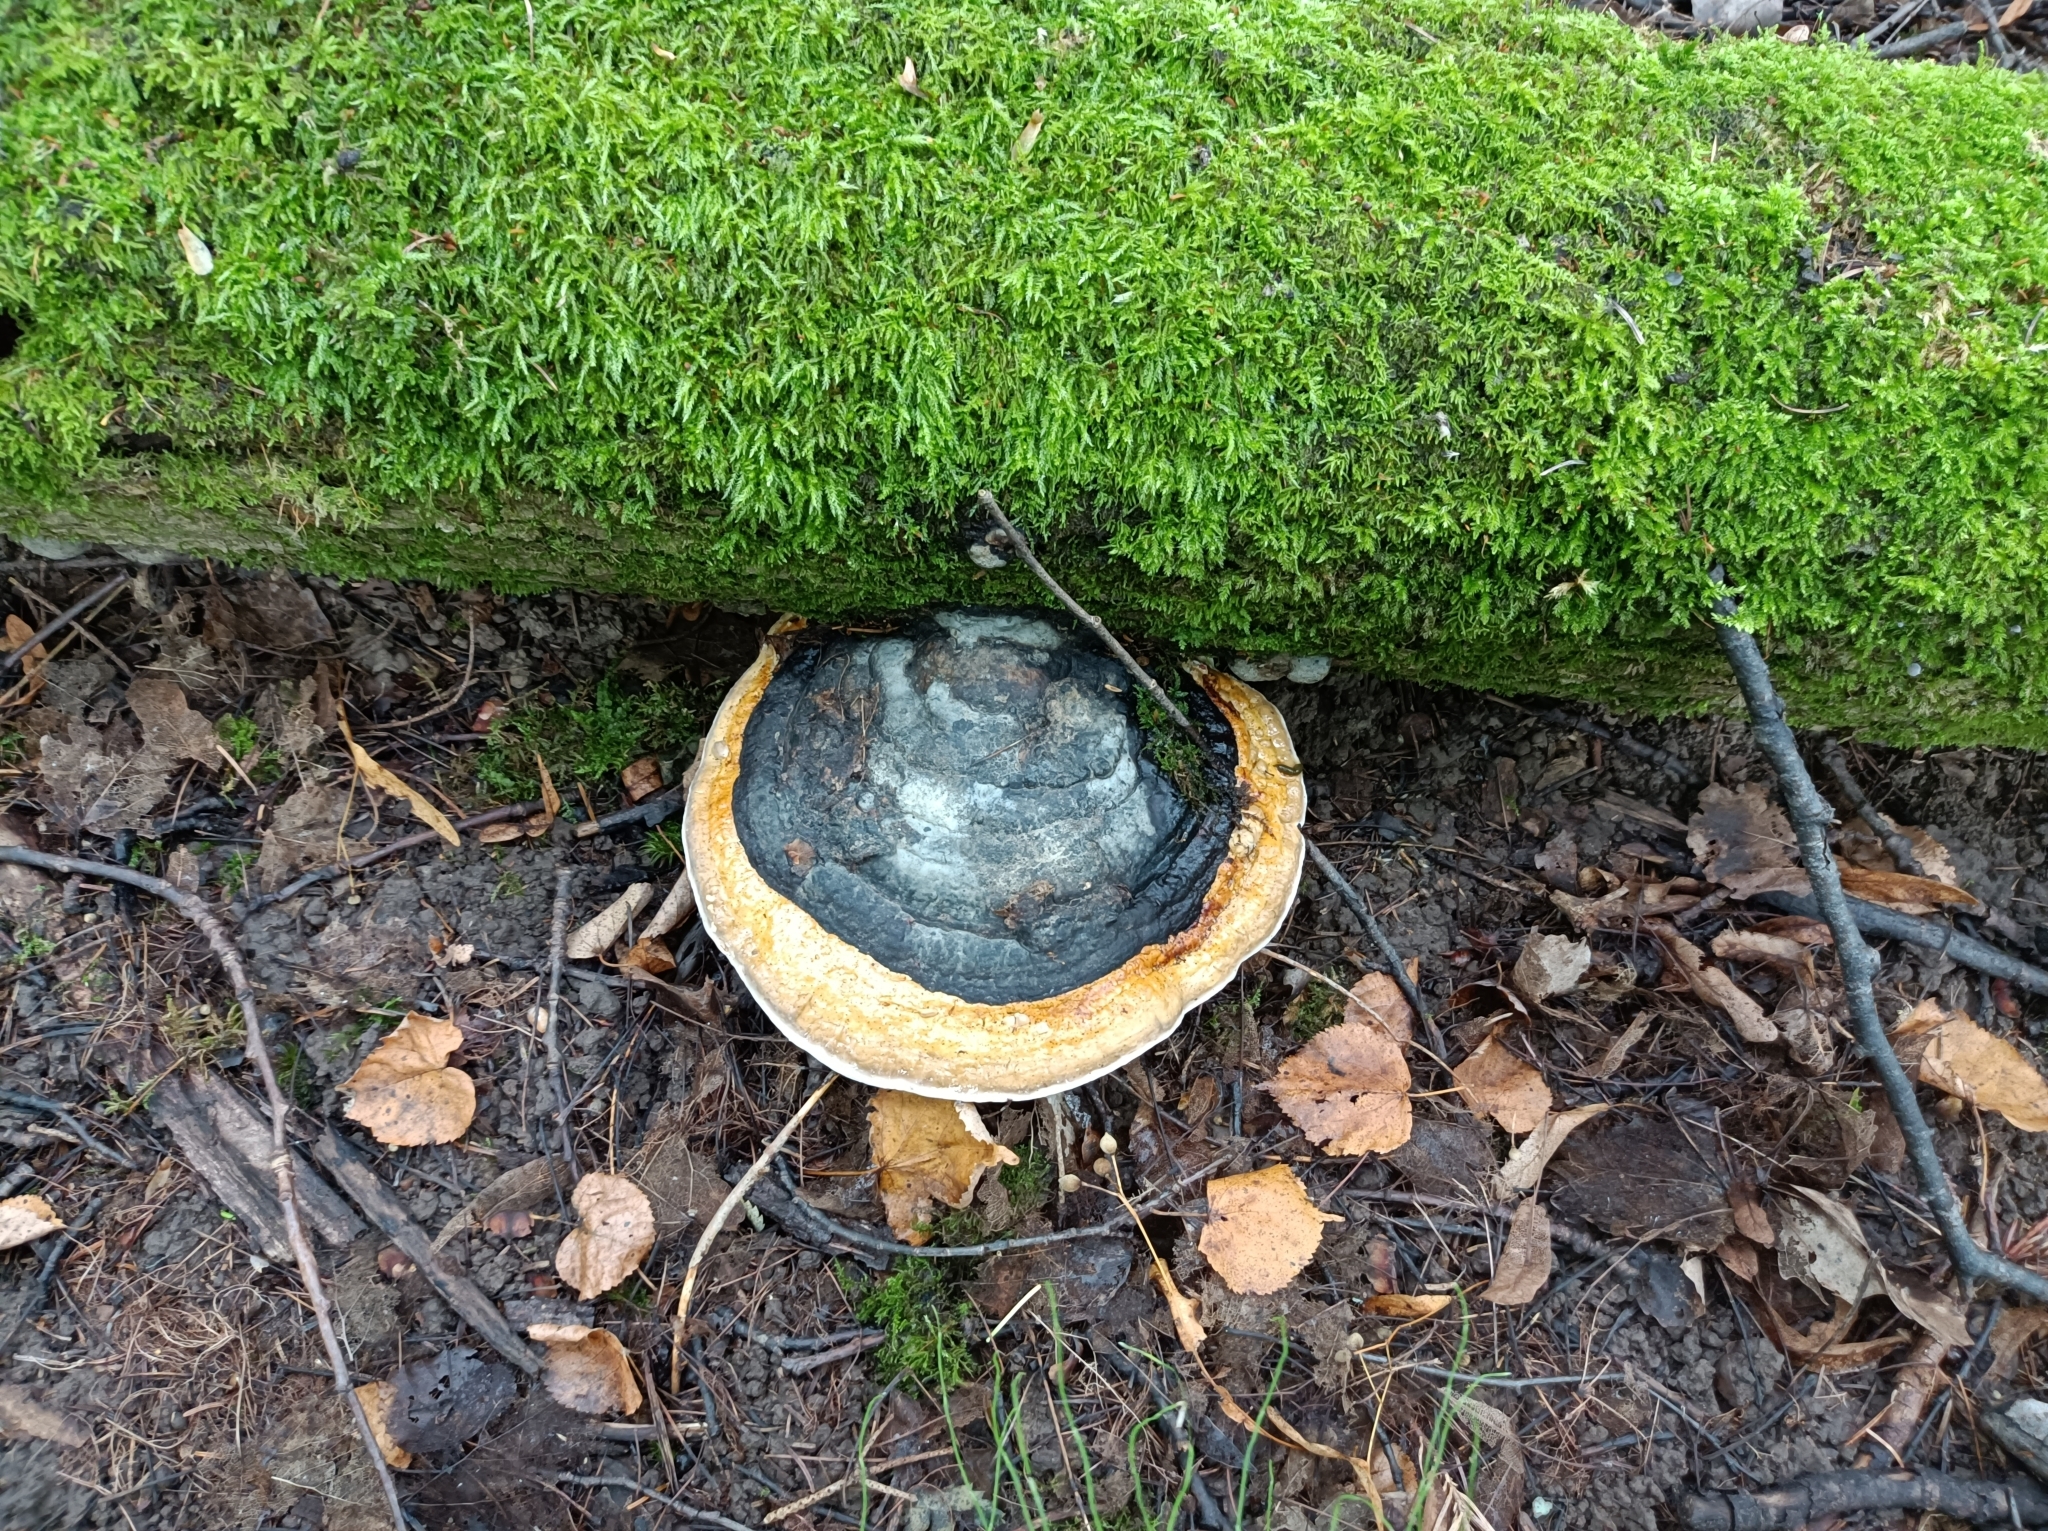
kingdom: Fungi
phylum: Basidiomycota
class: Agaricomycetes
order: Polyporales
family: Fomitopsidaceae
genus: Fomitopsis
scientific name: Fomitopsis pinicola
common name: Red-belted bracket
